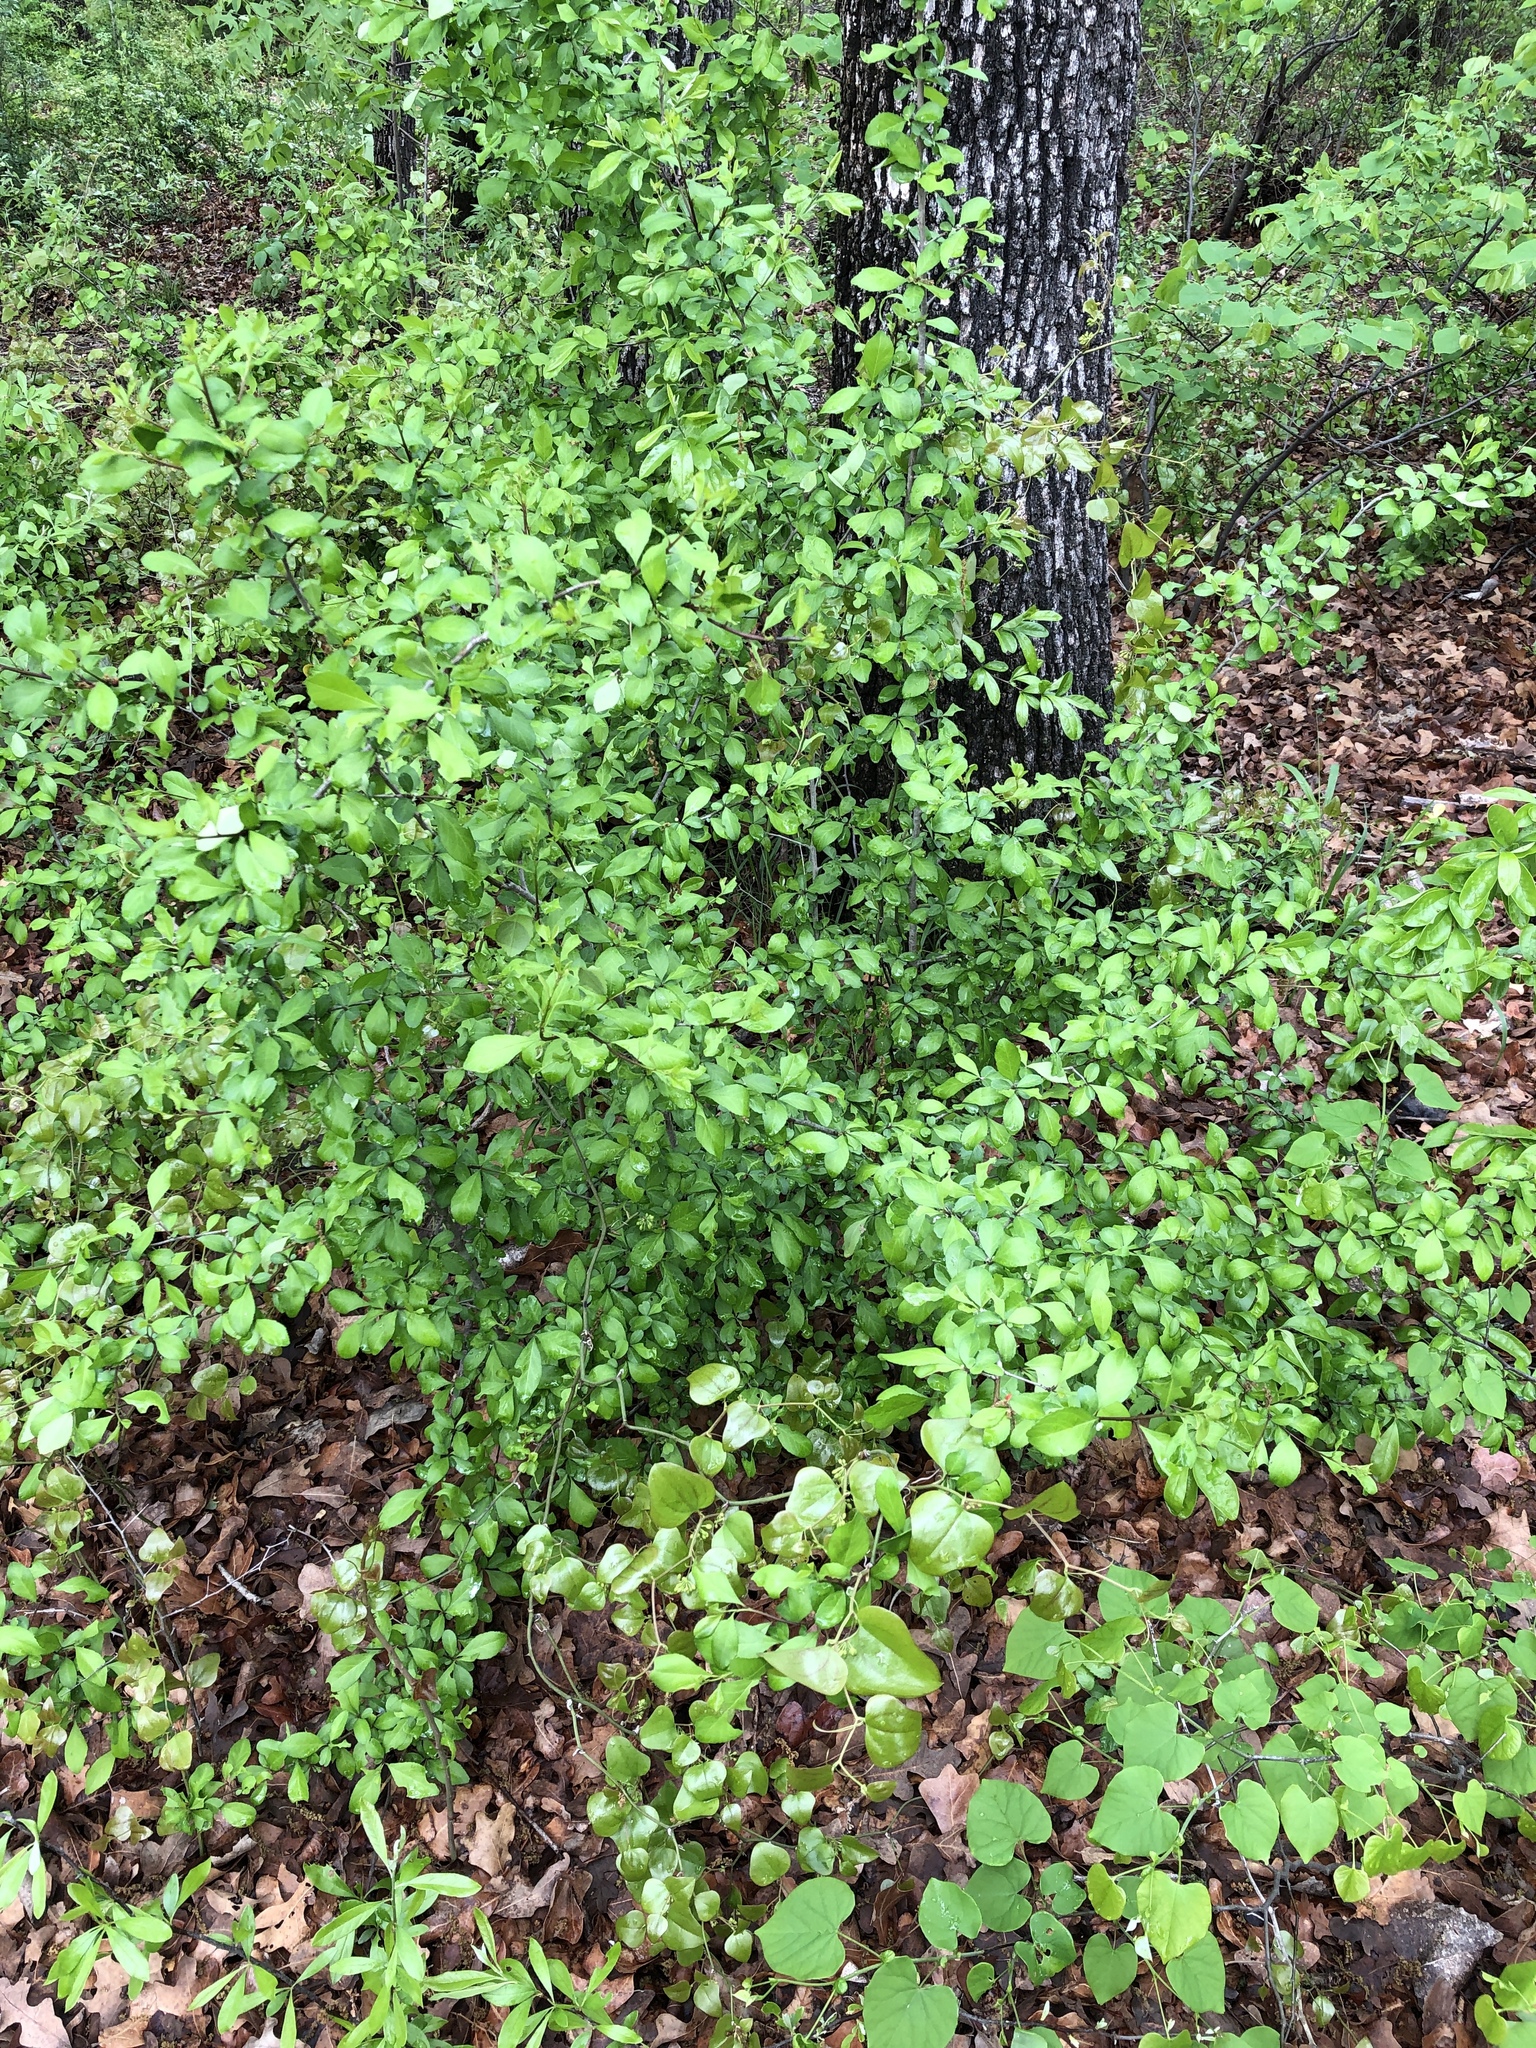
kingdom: Plantae
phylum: Tracheophyta
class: Magnoliopsida
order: Aquifoliales
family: Aquifoliaceae
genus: Ilex
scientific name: Ilex decidua
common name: Possum-haw
